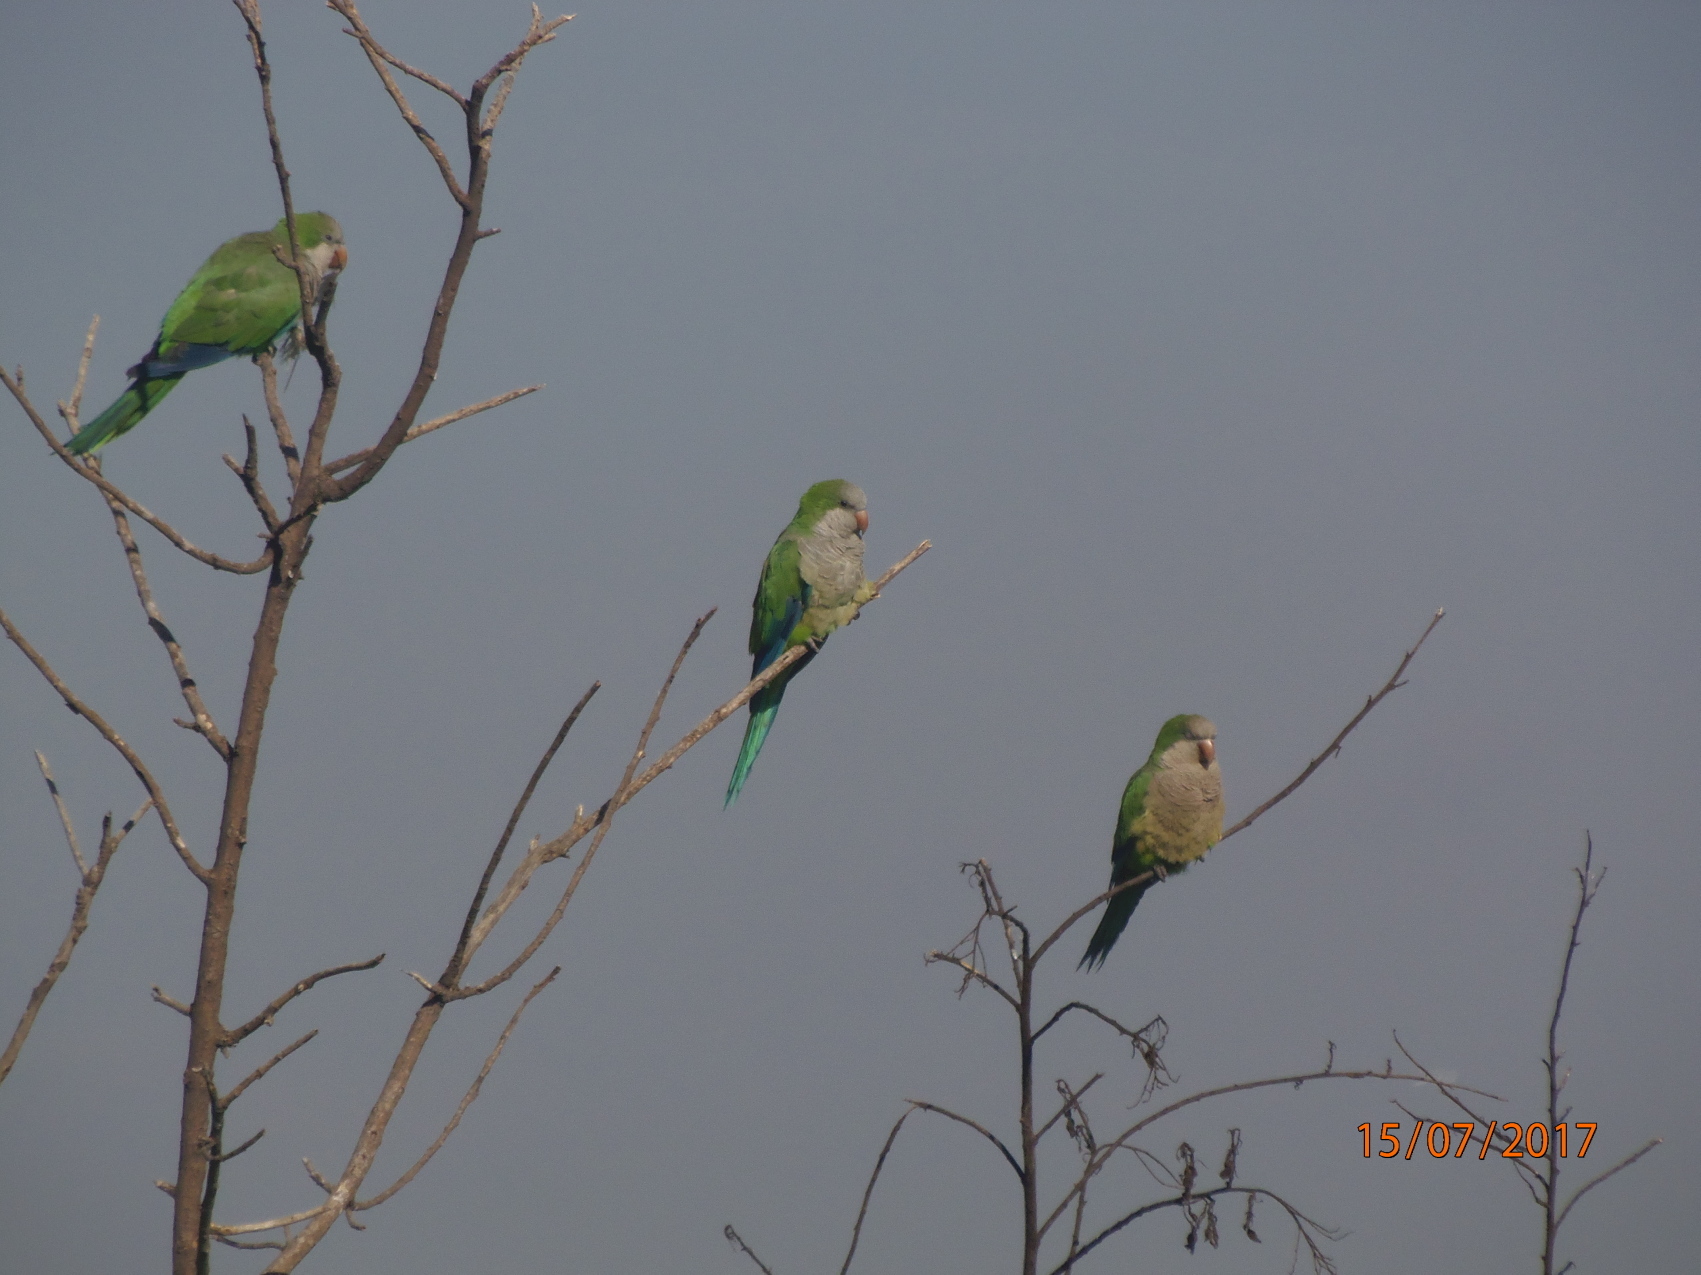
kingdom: Animalia
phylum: Chordata
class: Aves
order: Psittaciformes
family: Psittacidae
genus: Myiopsitta
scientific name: Myiopsitta monachus
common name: Monk parakeet
